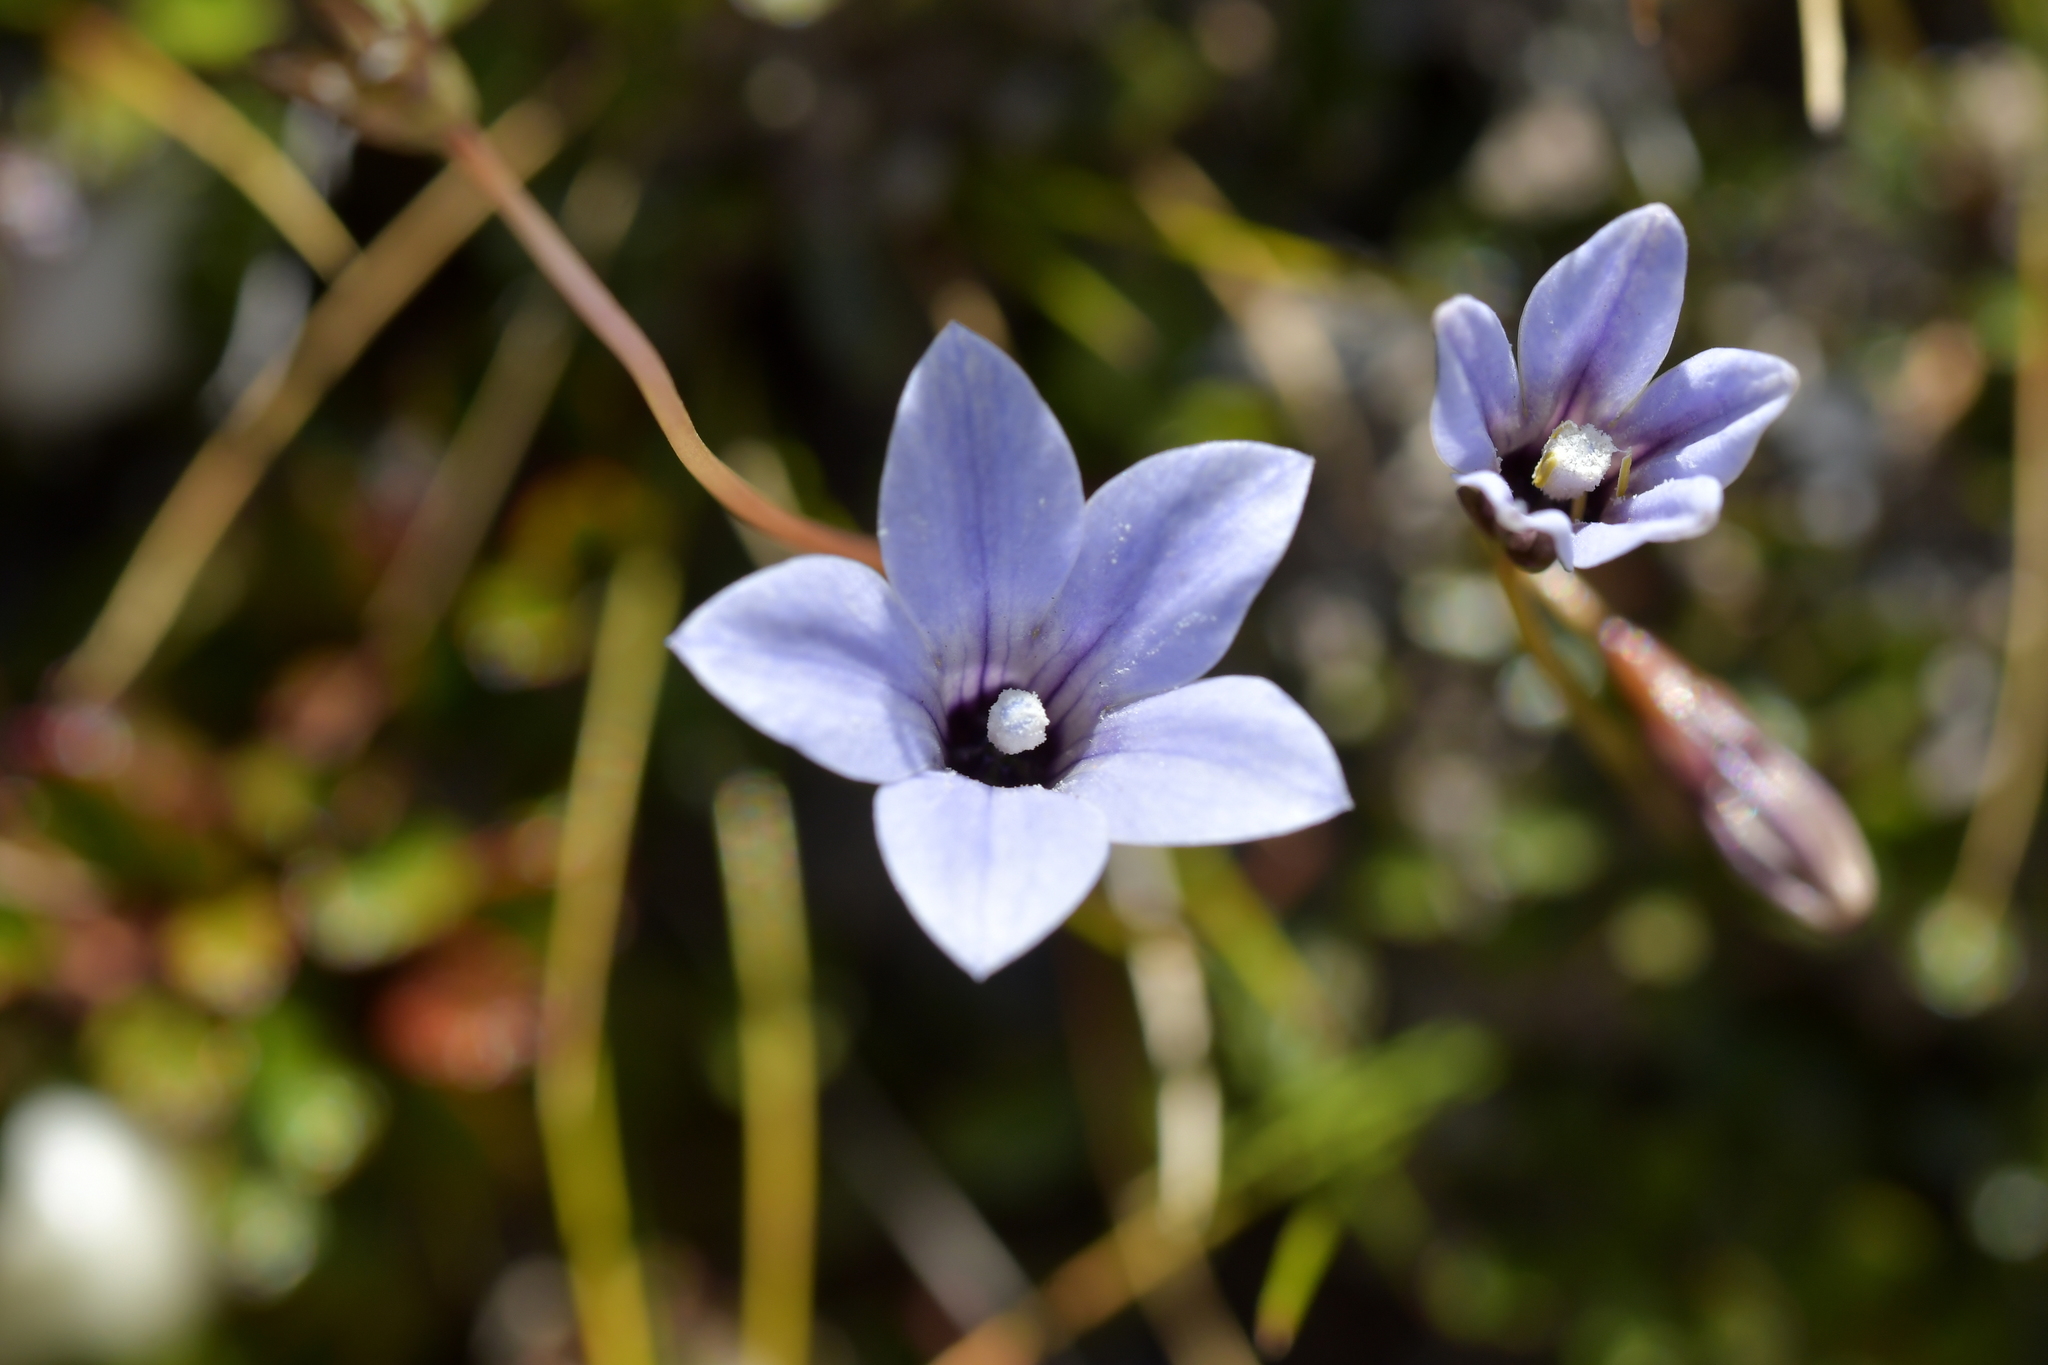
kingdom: Plantae
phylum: Tracheophyta
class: Magnoliopsida
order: Asterales
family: Campanulaceae
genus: Wahlenbergia
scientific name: Wahlenbergia albomarginata
